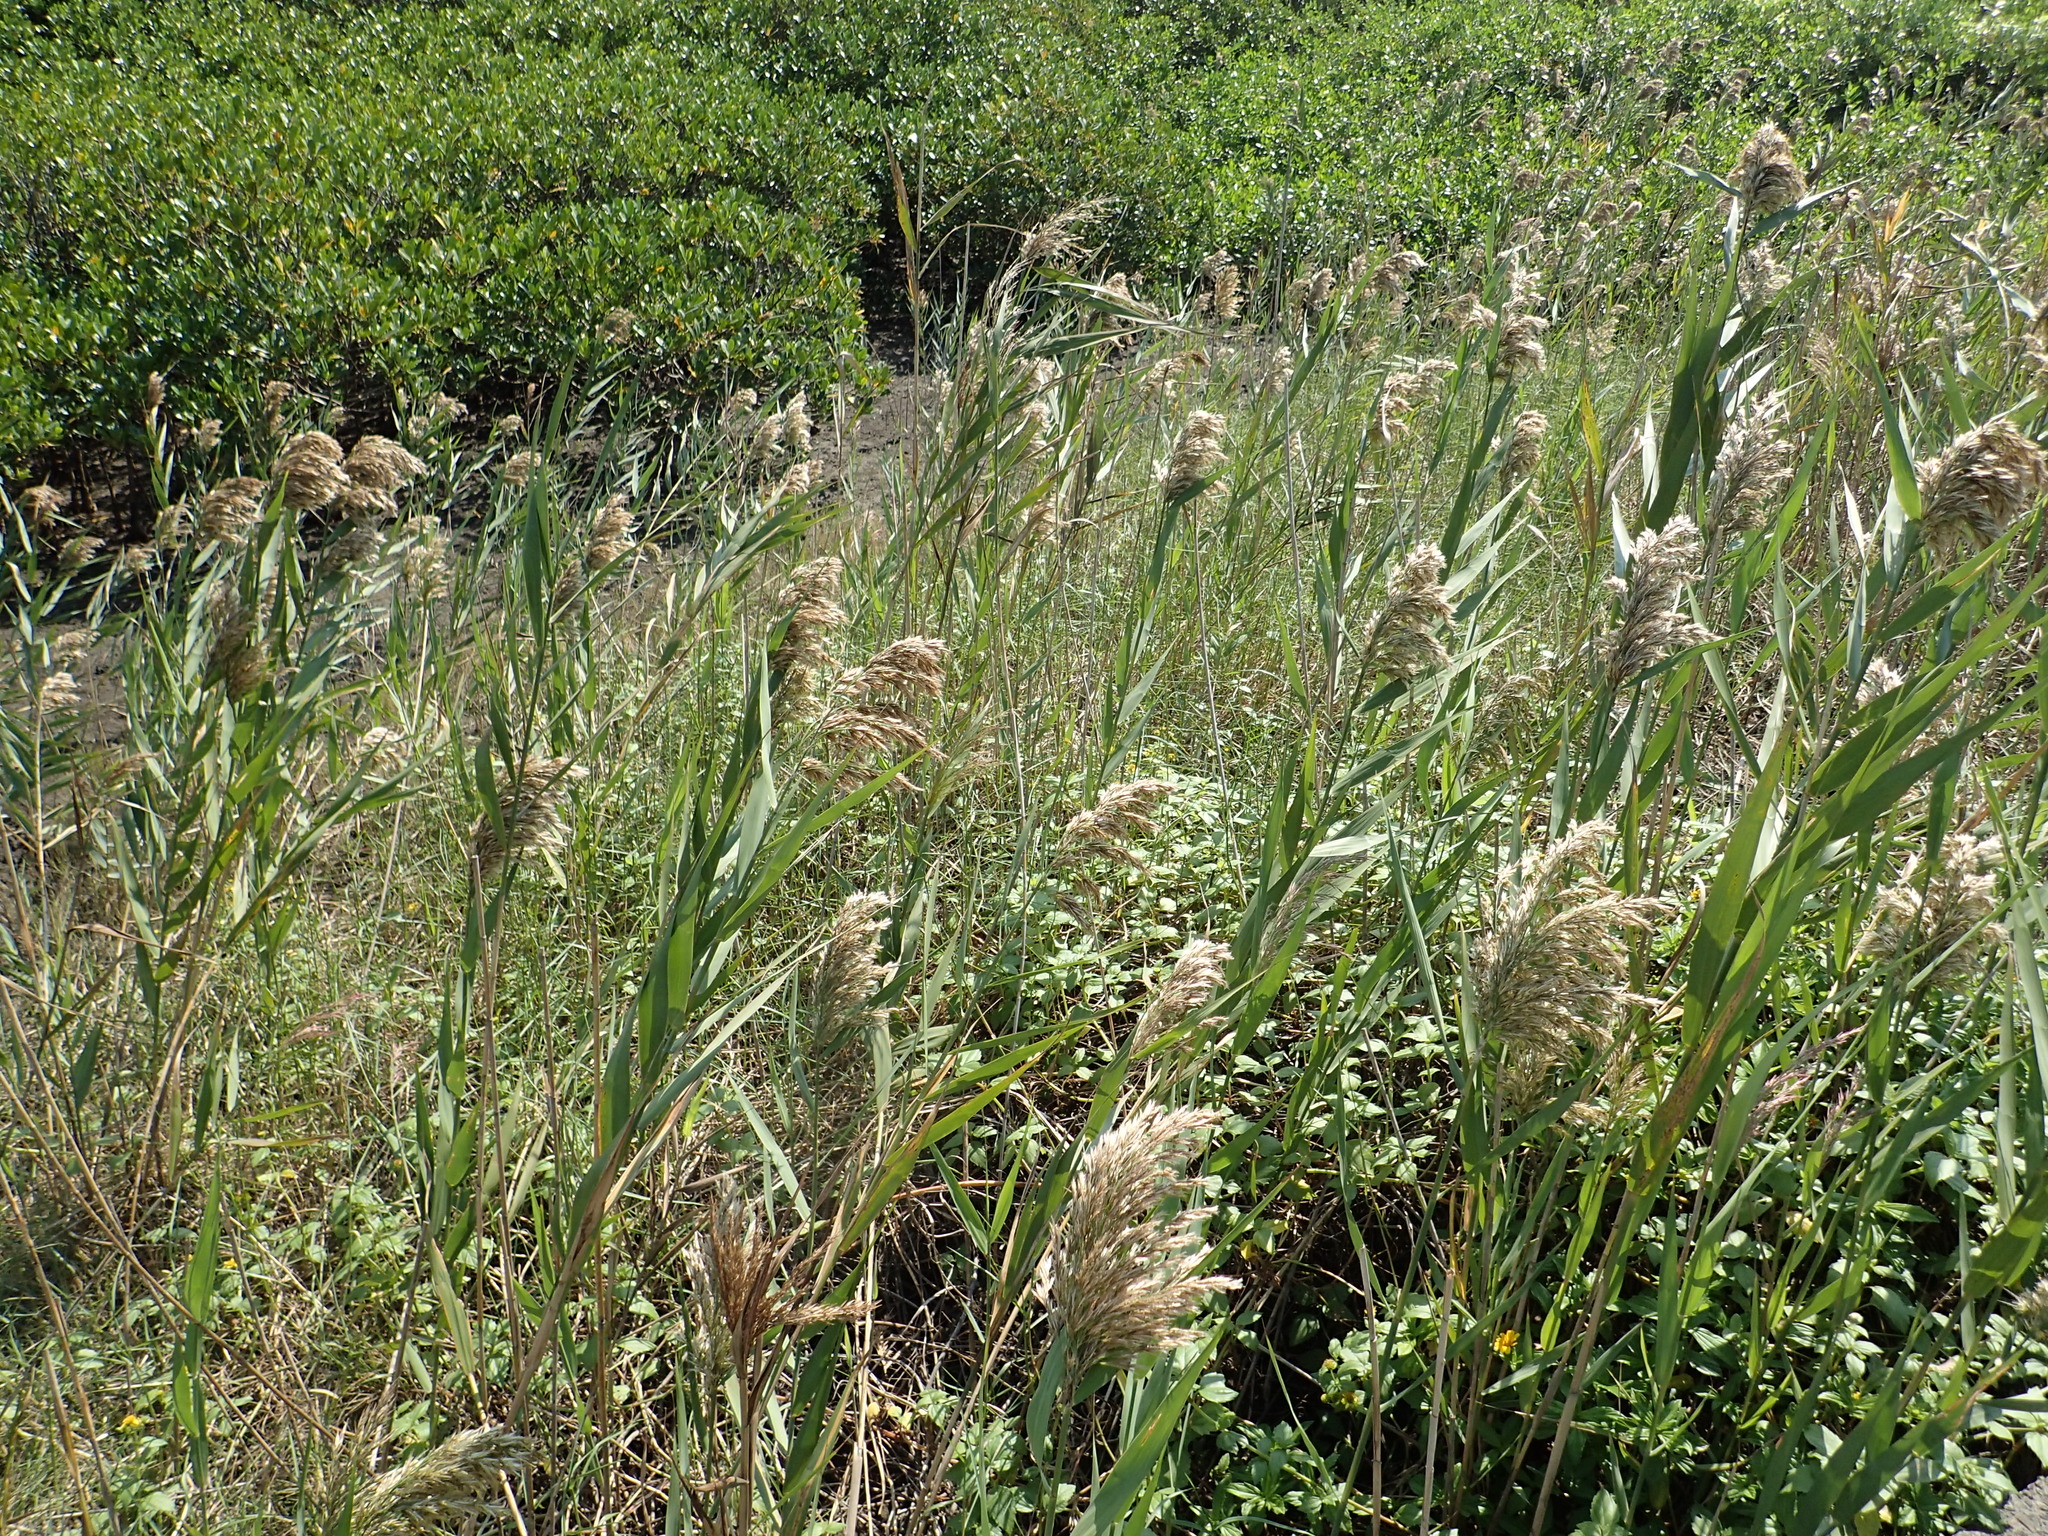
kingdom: Plantae
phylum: Tracheophyta
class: Liliopsida
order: Poales
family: Poaceae
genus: Phragmites
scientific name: Phragmites australis
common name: Common reed
